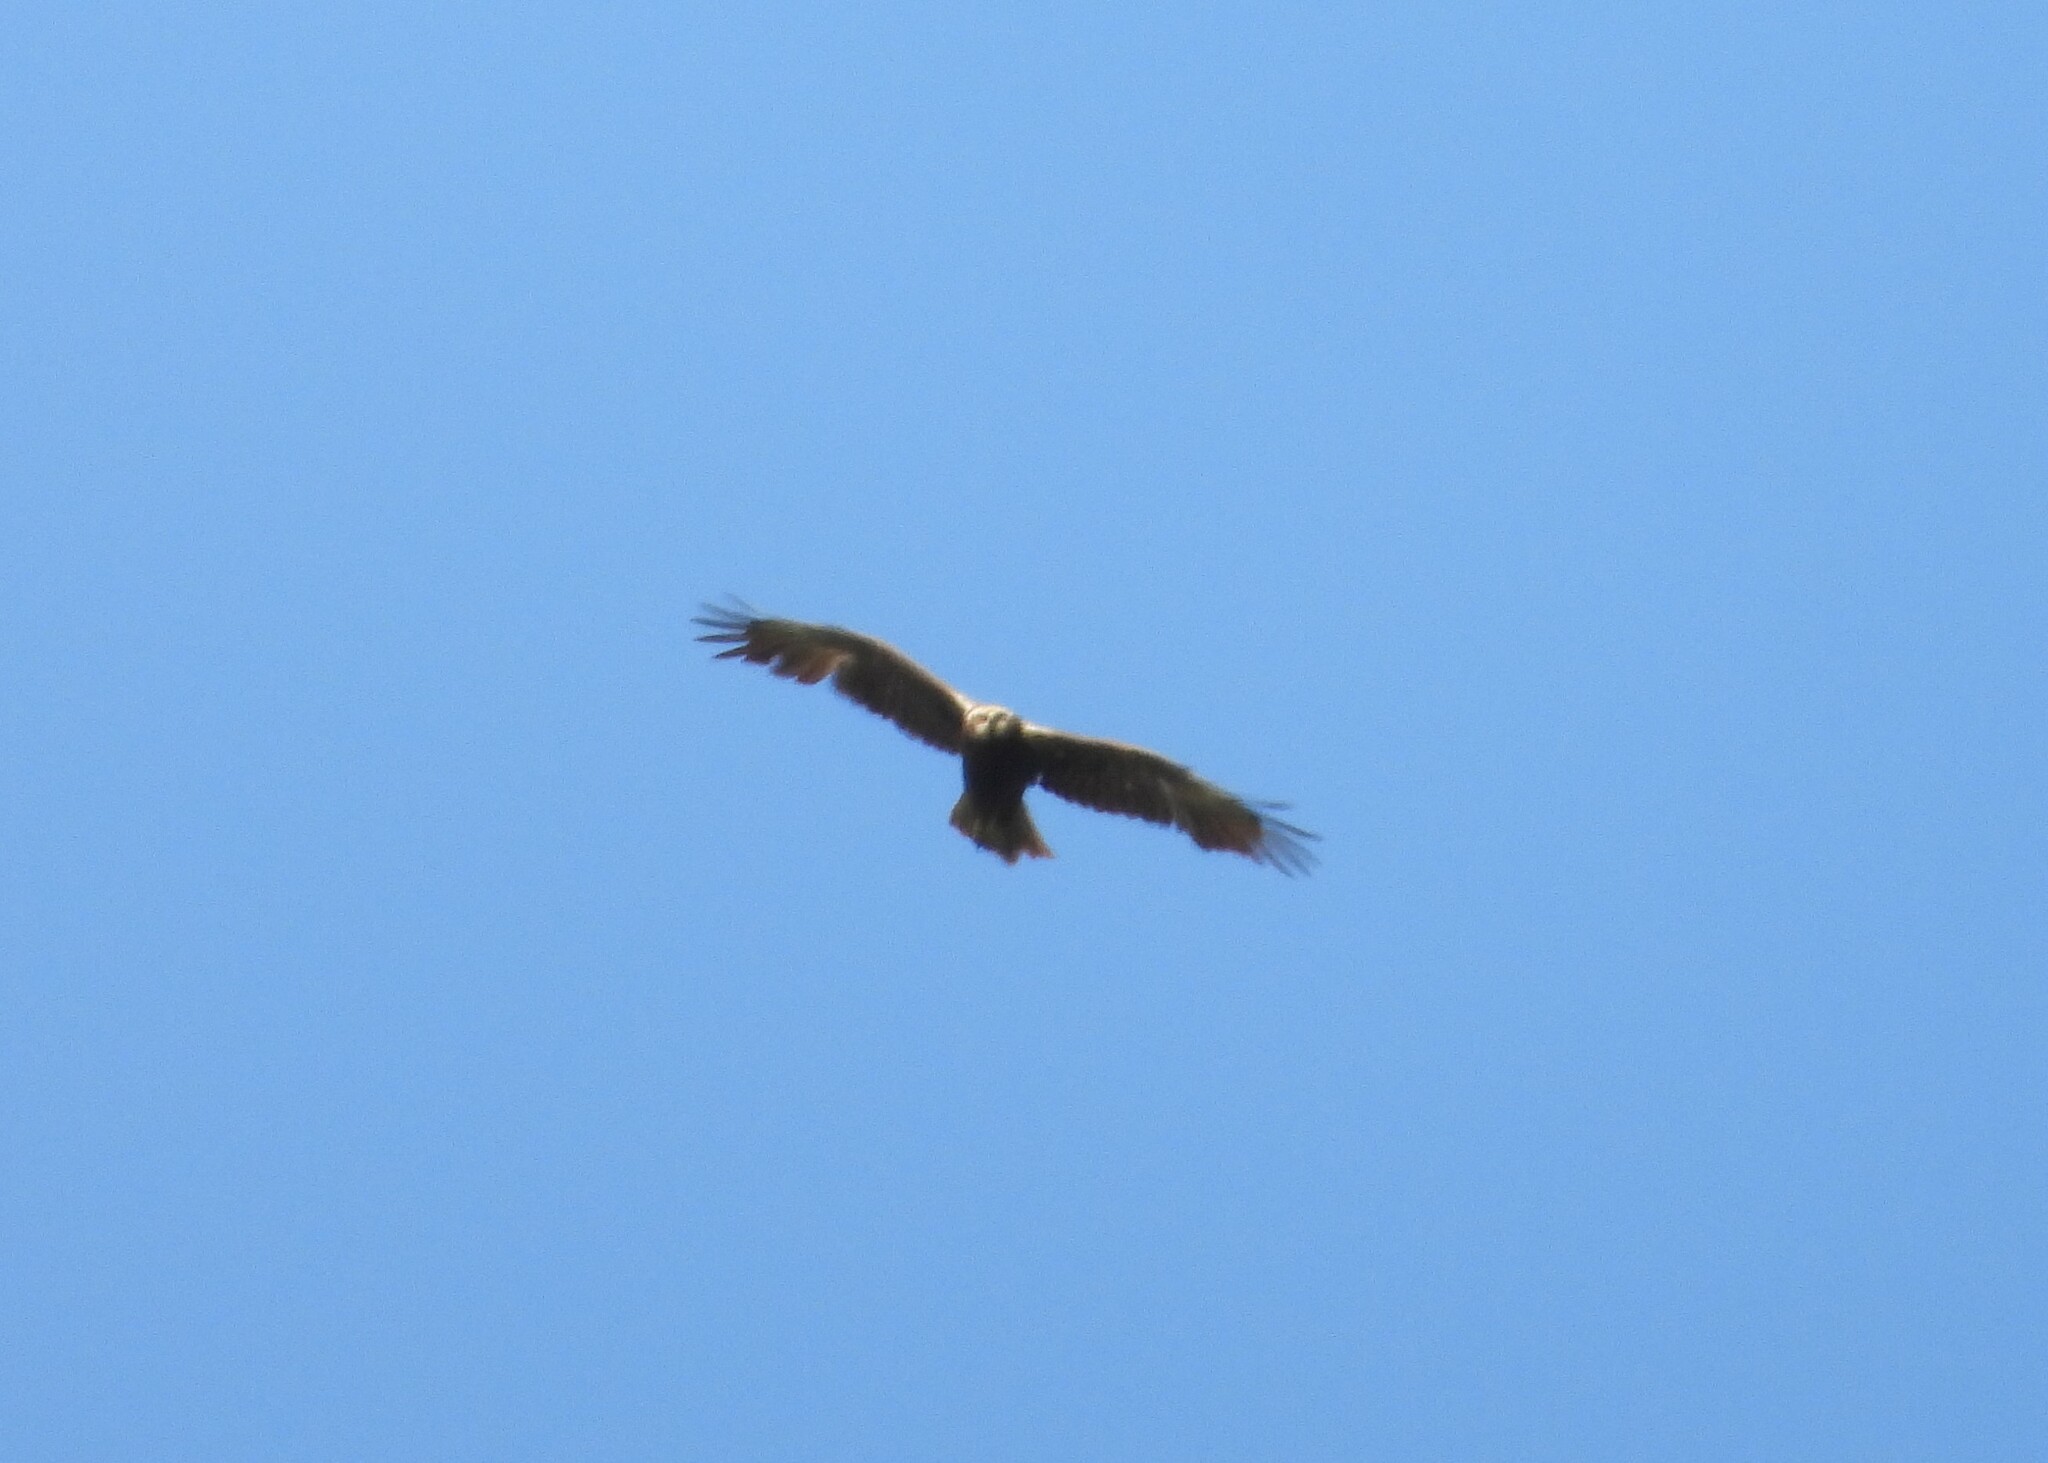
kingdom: Animalia
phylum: Chordata
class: Aves
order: Accipitriformes
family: Accipitridae
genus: Circus
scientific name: Circus aeruginosus
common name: Western marsh harrier
